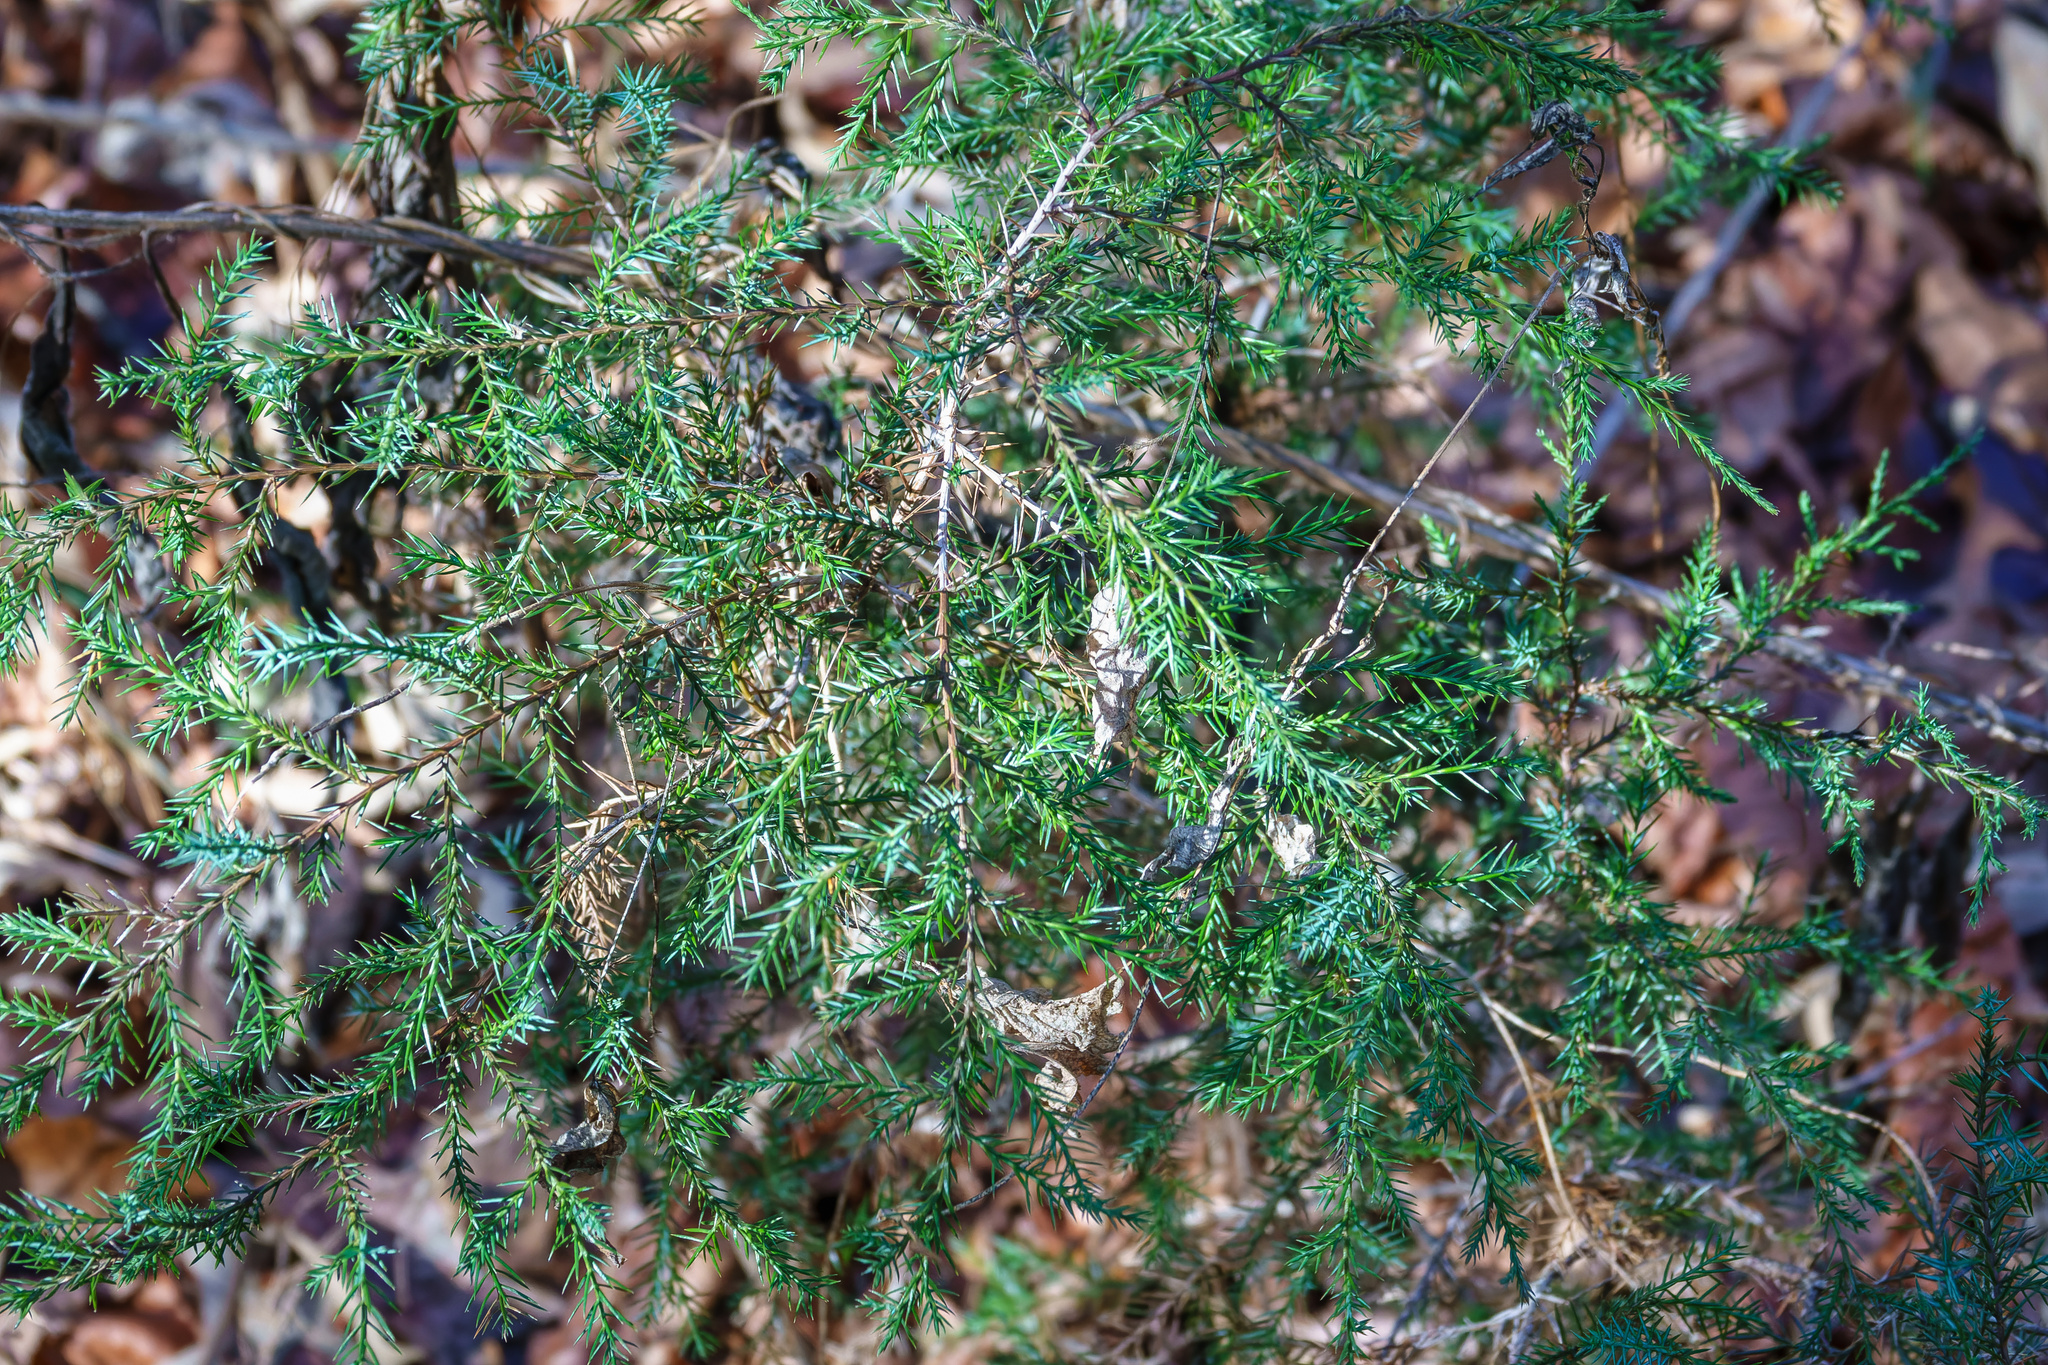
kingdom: Plantae
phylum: Tracheophyta
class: Pinopsida
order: Pinales
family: Cupressaceae
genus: Juniperus
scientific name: Juniperus virginiana
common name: Red juniper
